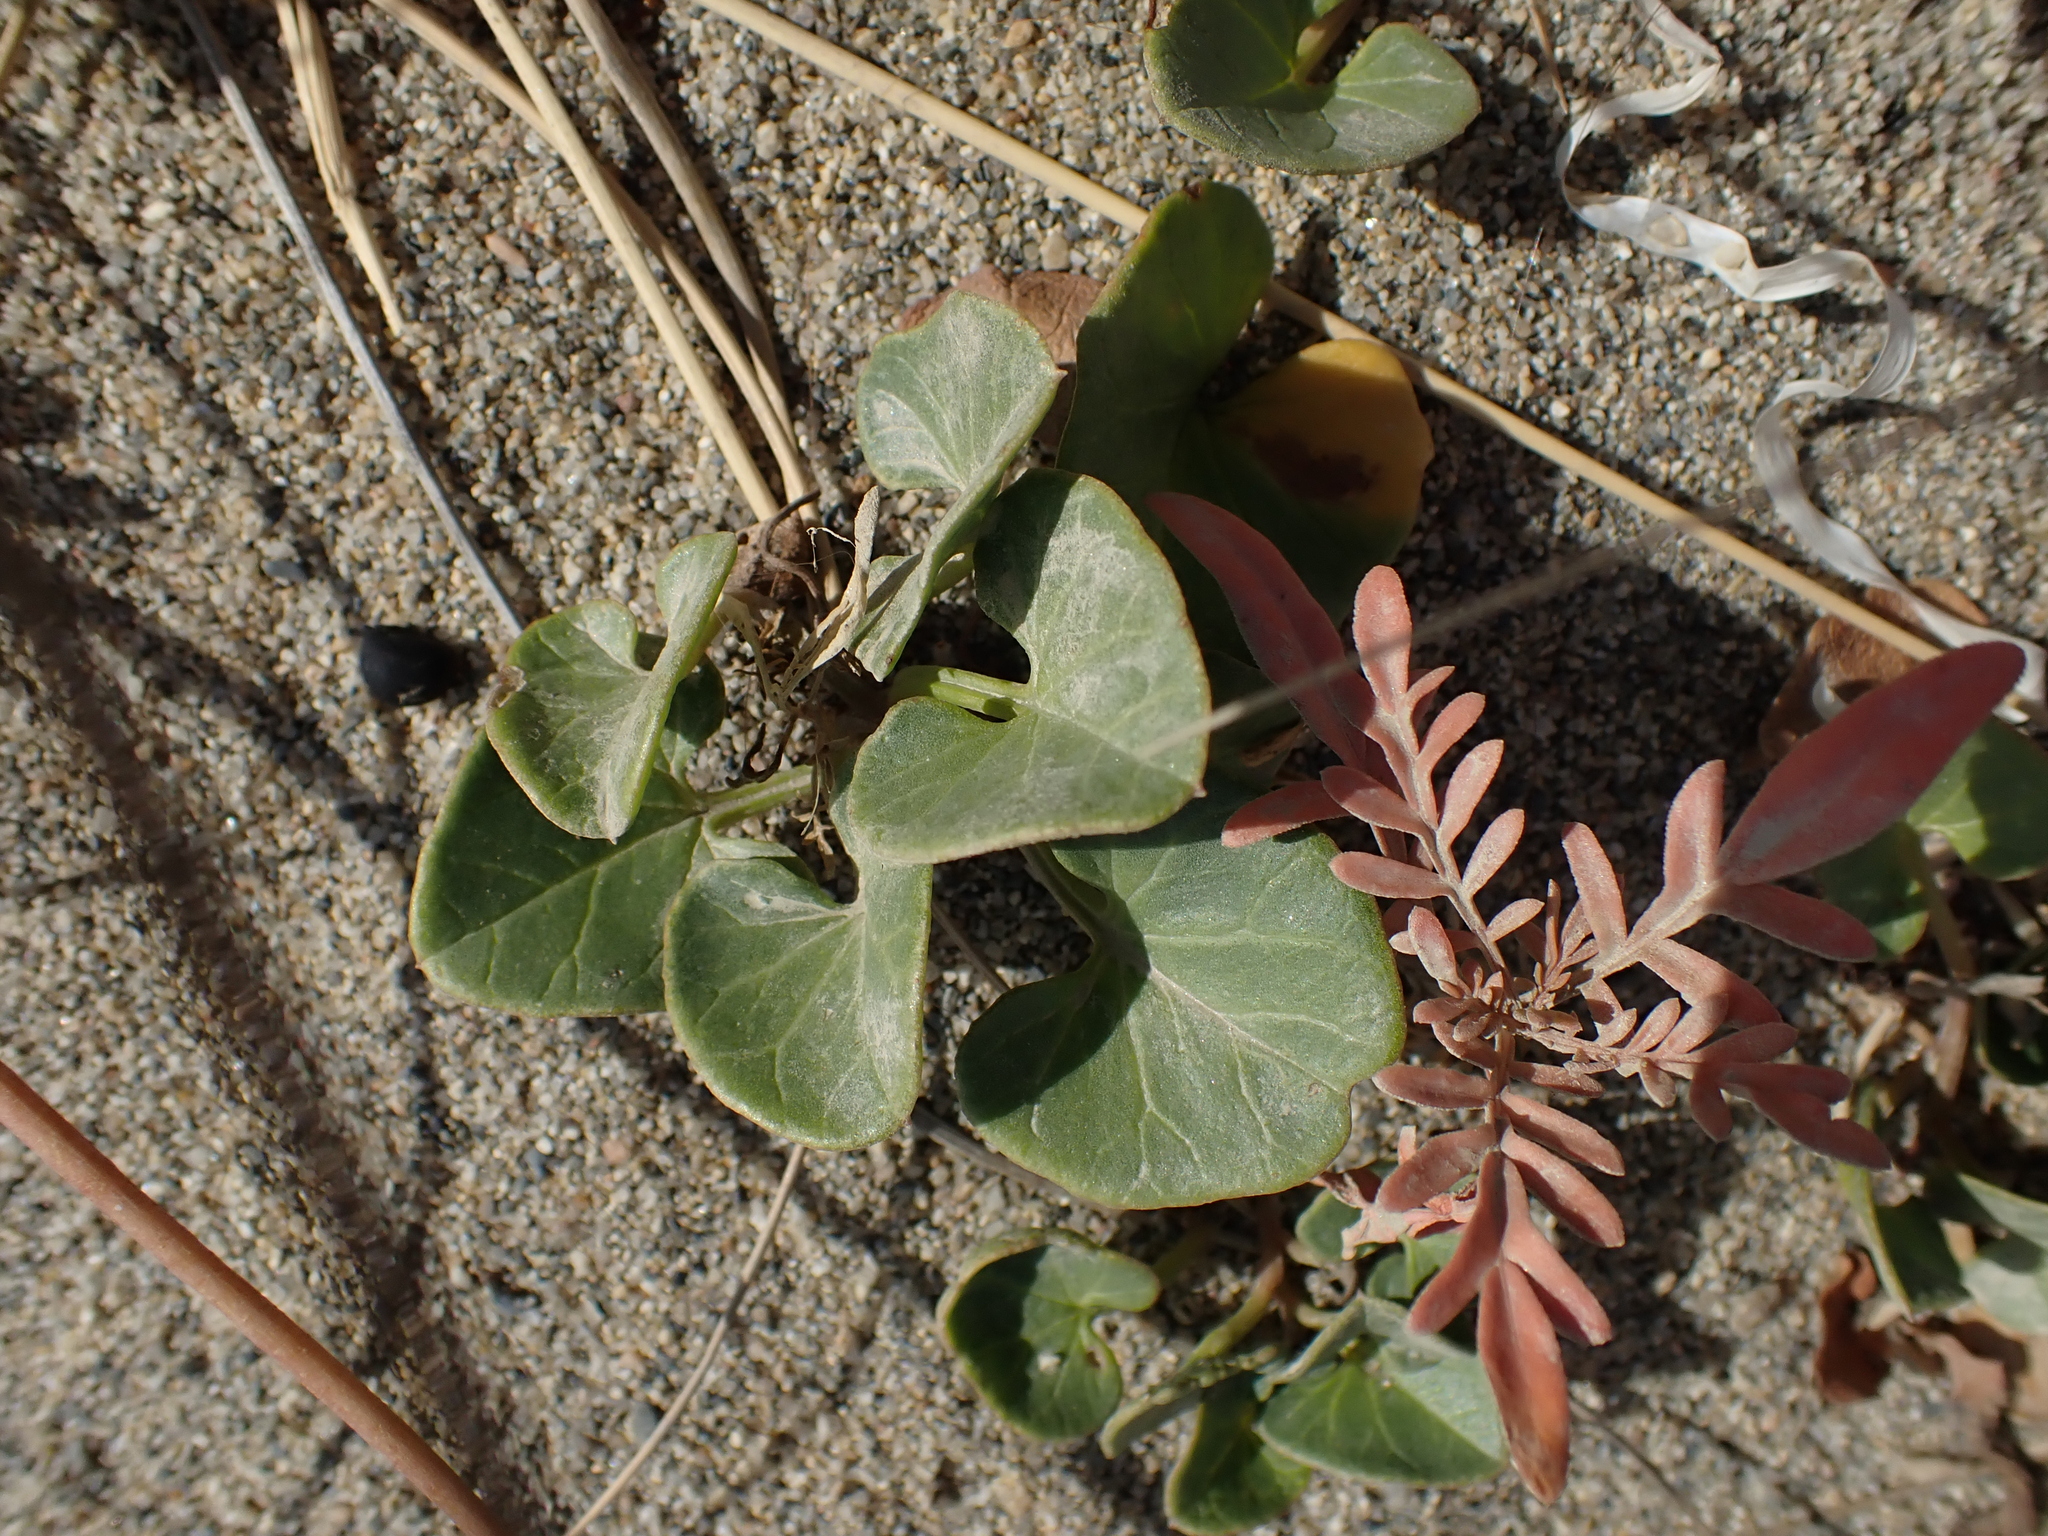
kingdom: Plantae
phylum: Tracheophyta
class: Magnoliopsida
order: Solanales
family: Convolvulaceae
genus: Calystegia
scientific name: Calystegia soldanella
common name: Sea bindweed
